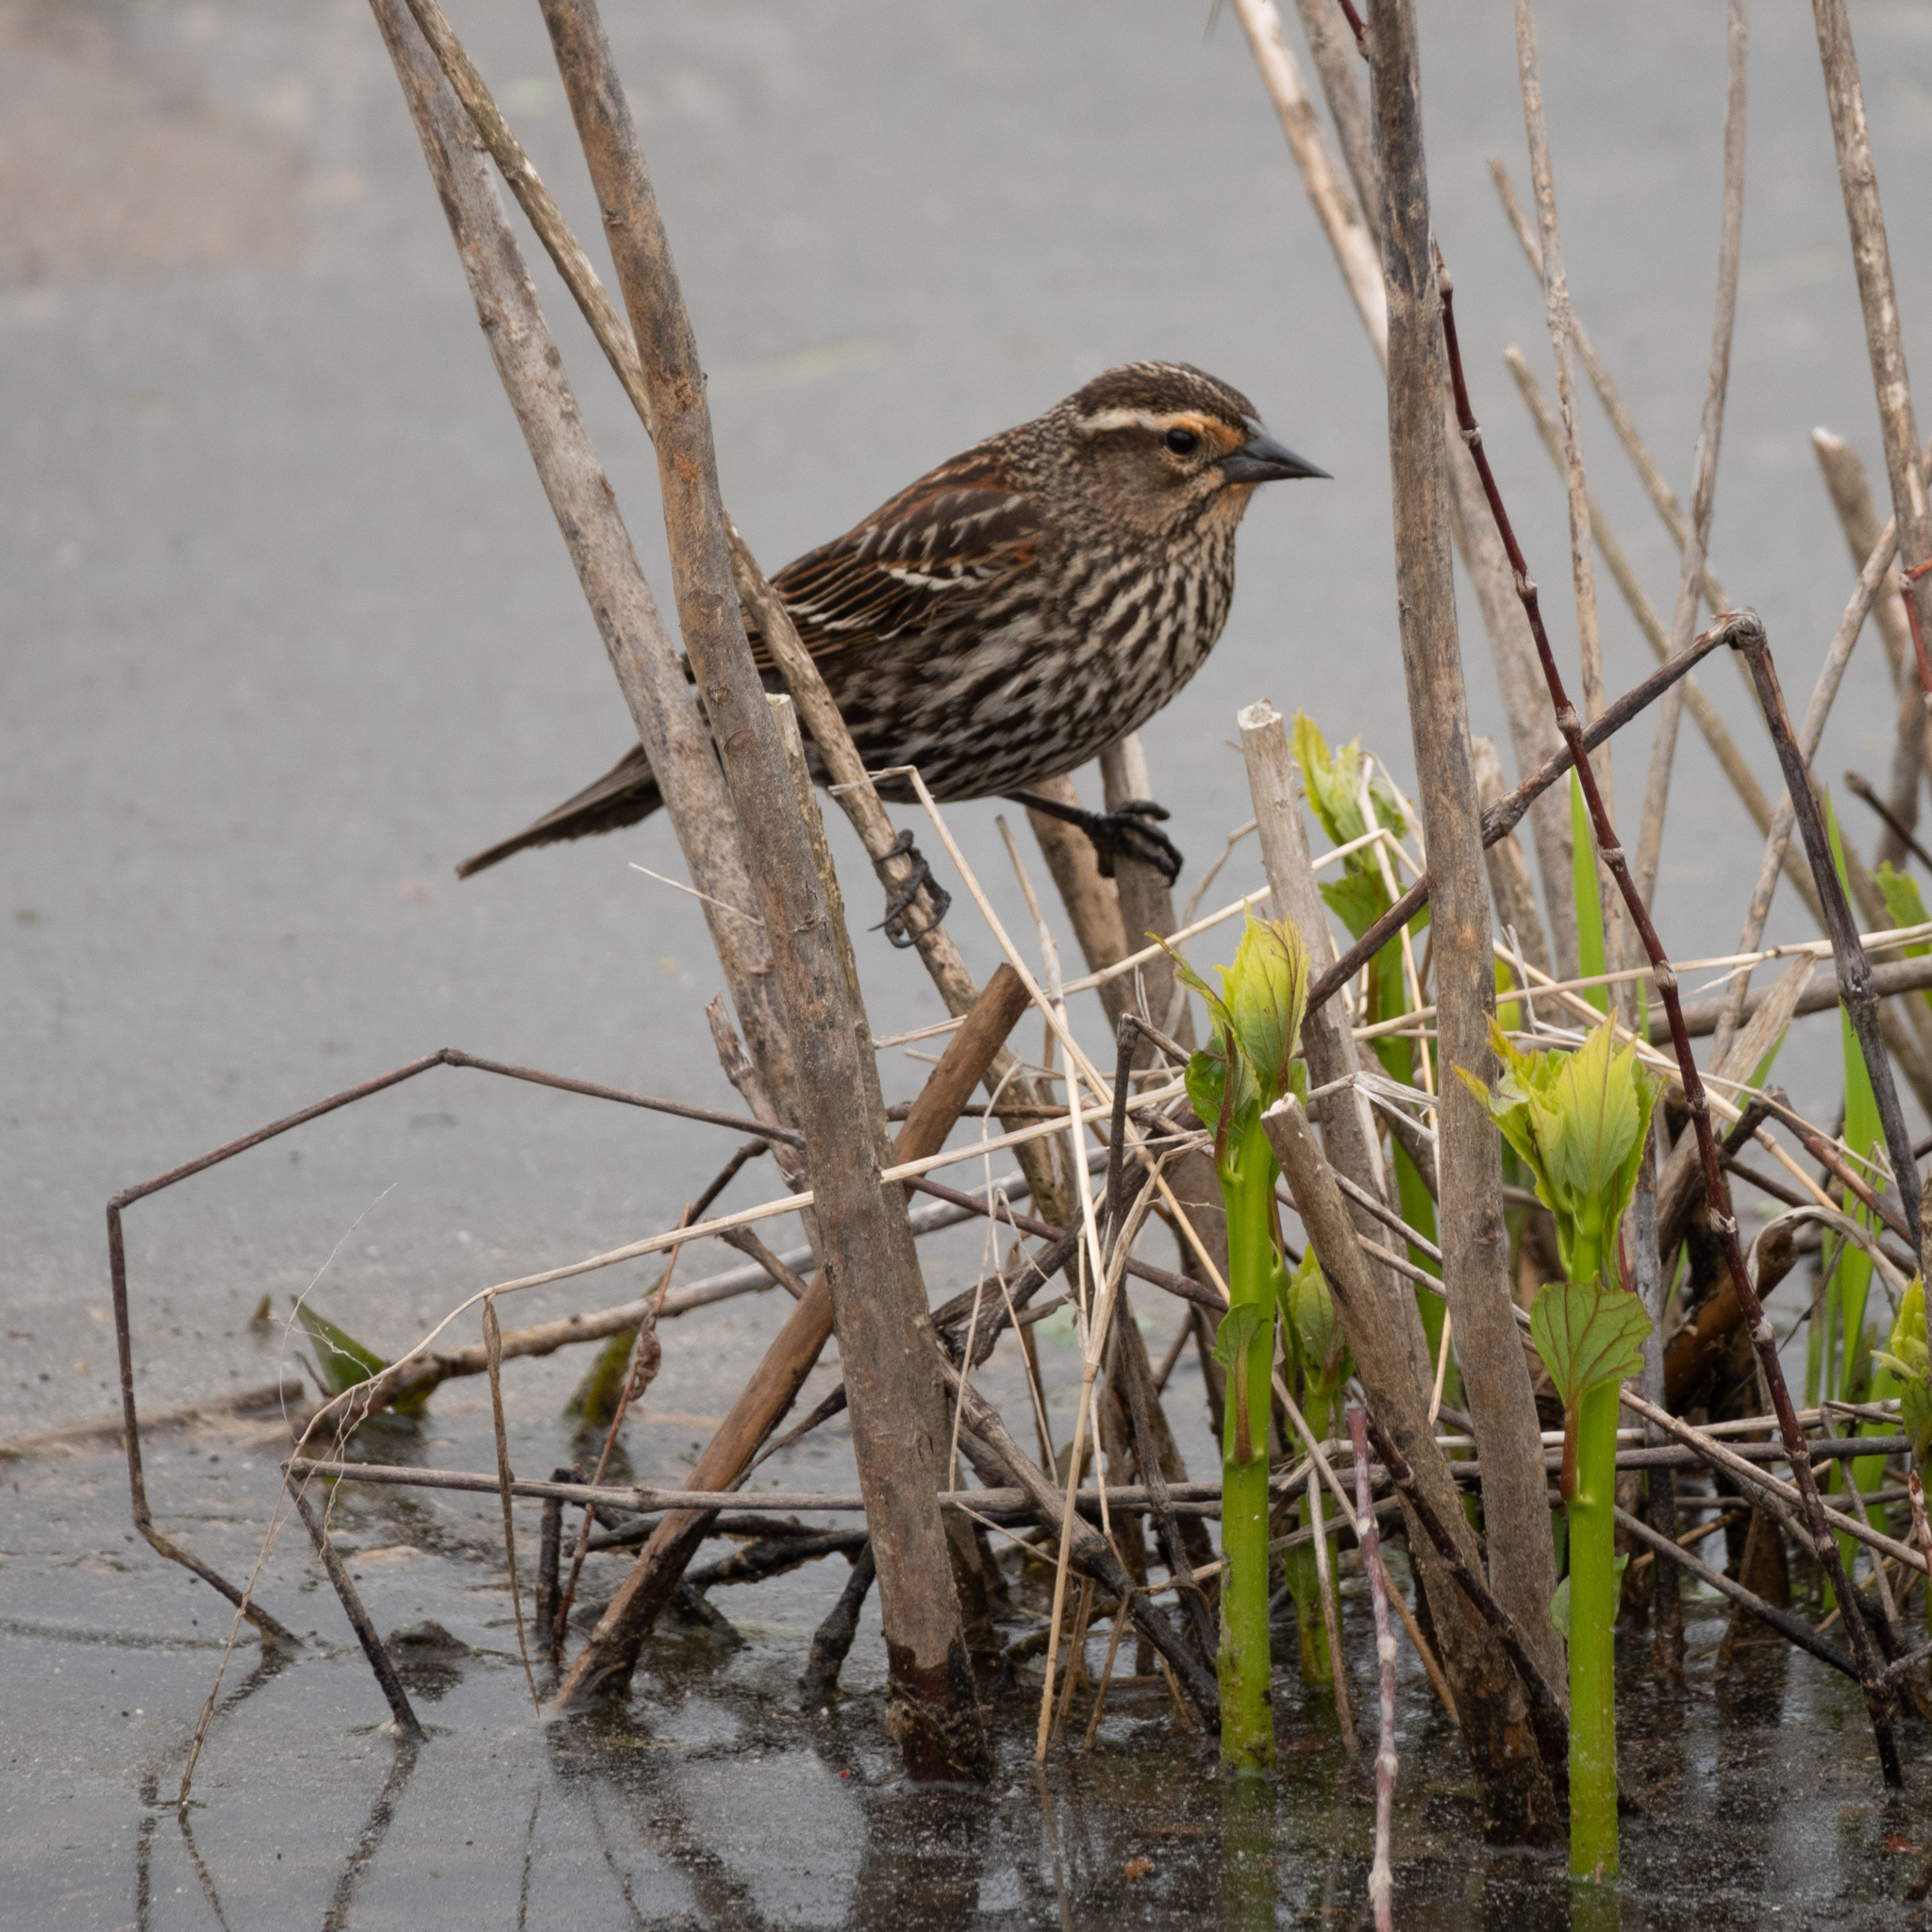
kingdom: Animalia
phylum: Chordata
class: Aves
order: Passeriformes
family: Icteridae
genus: Agelaius
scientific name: Agelaius phoeniceus
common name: Red-winged blackbird
